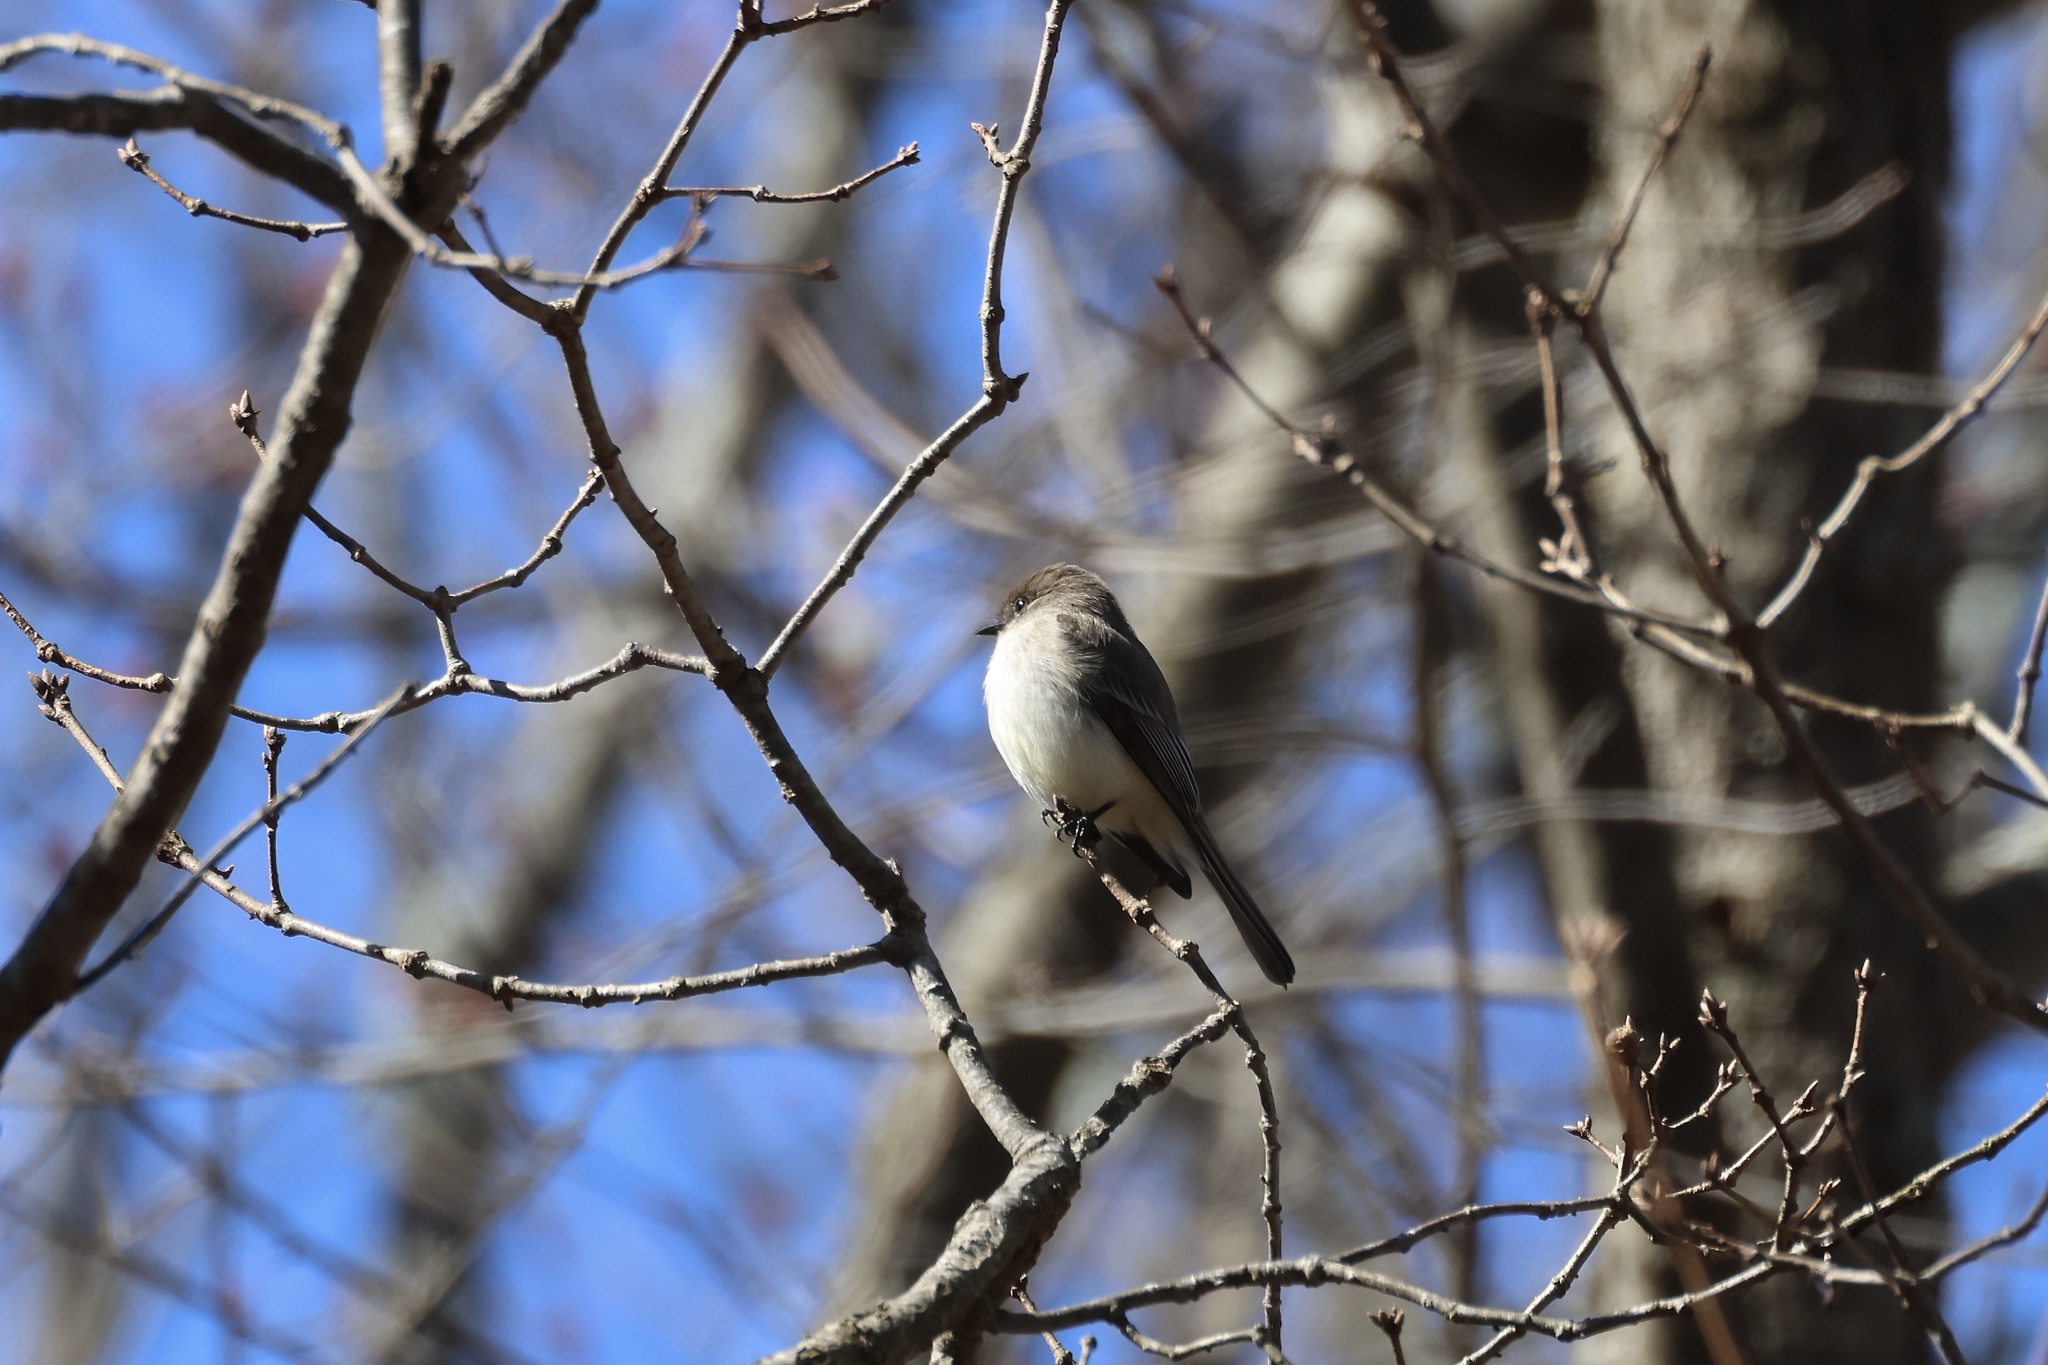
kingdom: Animalia
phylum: Chordata
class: Aves
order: Passeriformes
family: Tyrannidae
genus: Sayornis
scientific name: Sayornis phoebe
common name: Eastern phoebe
